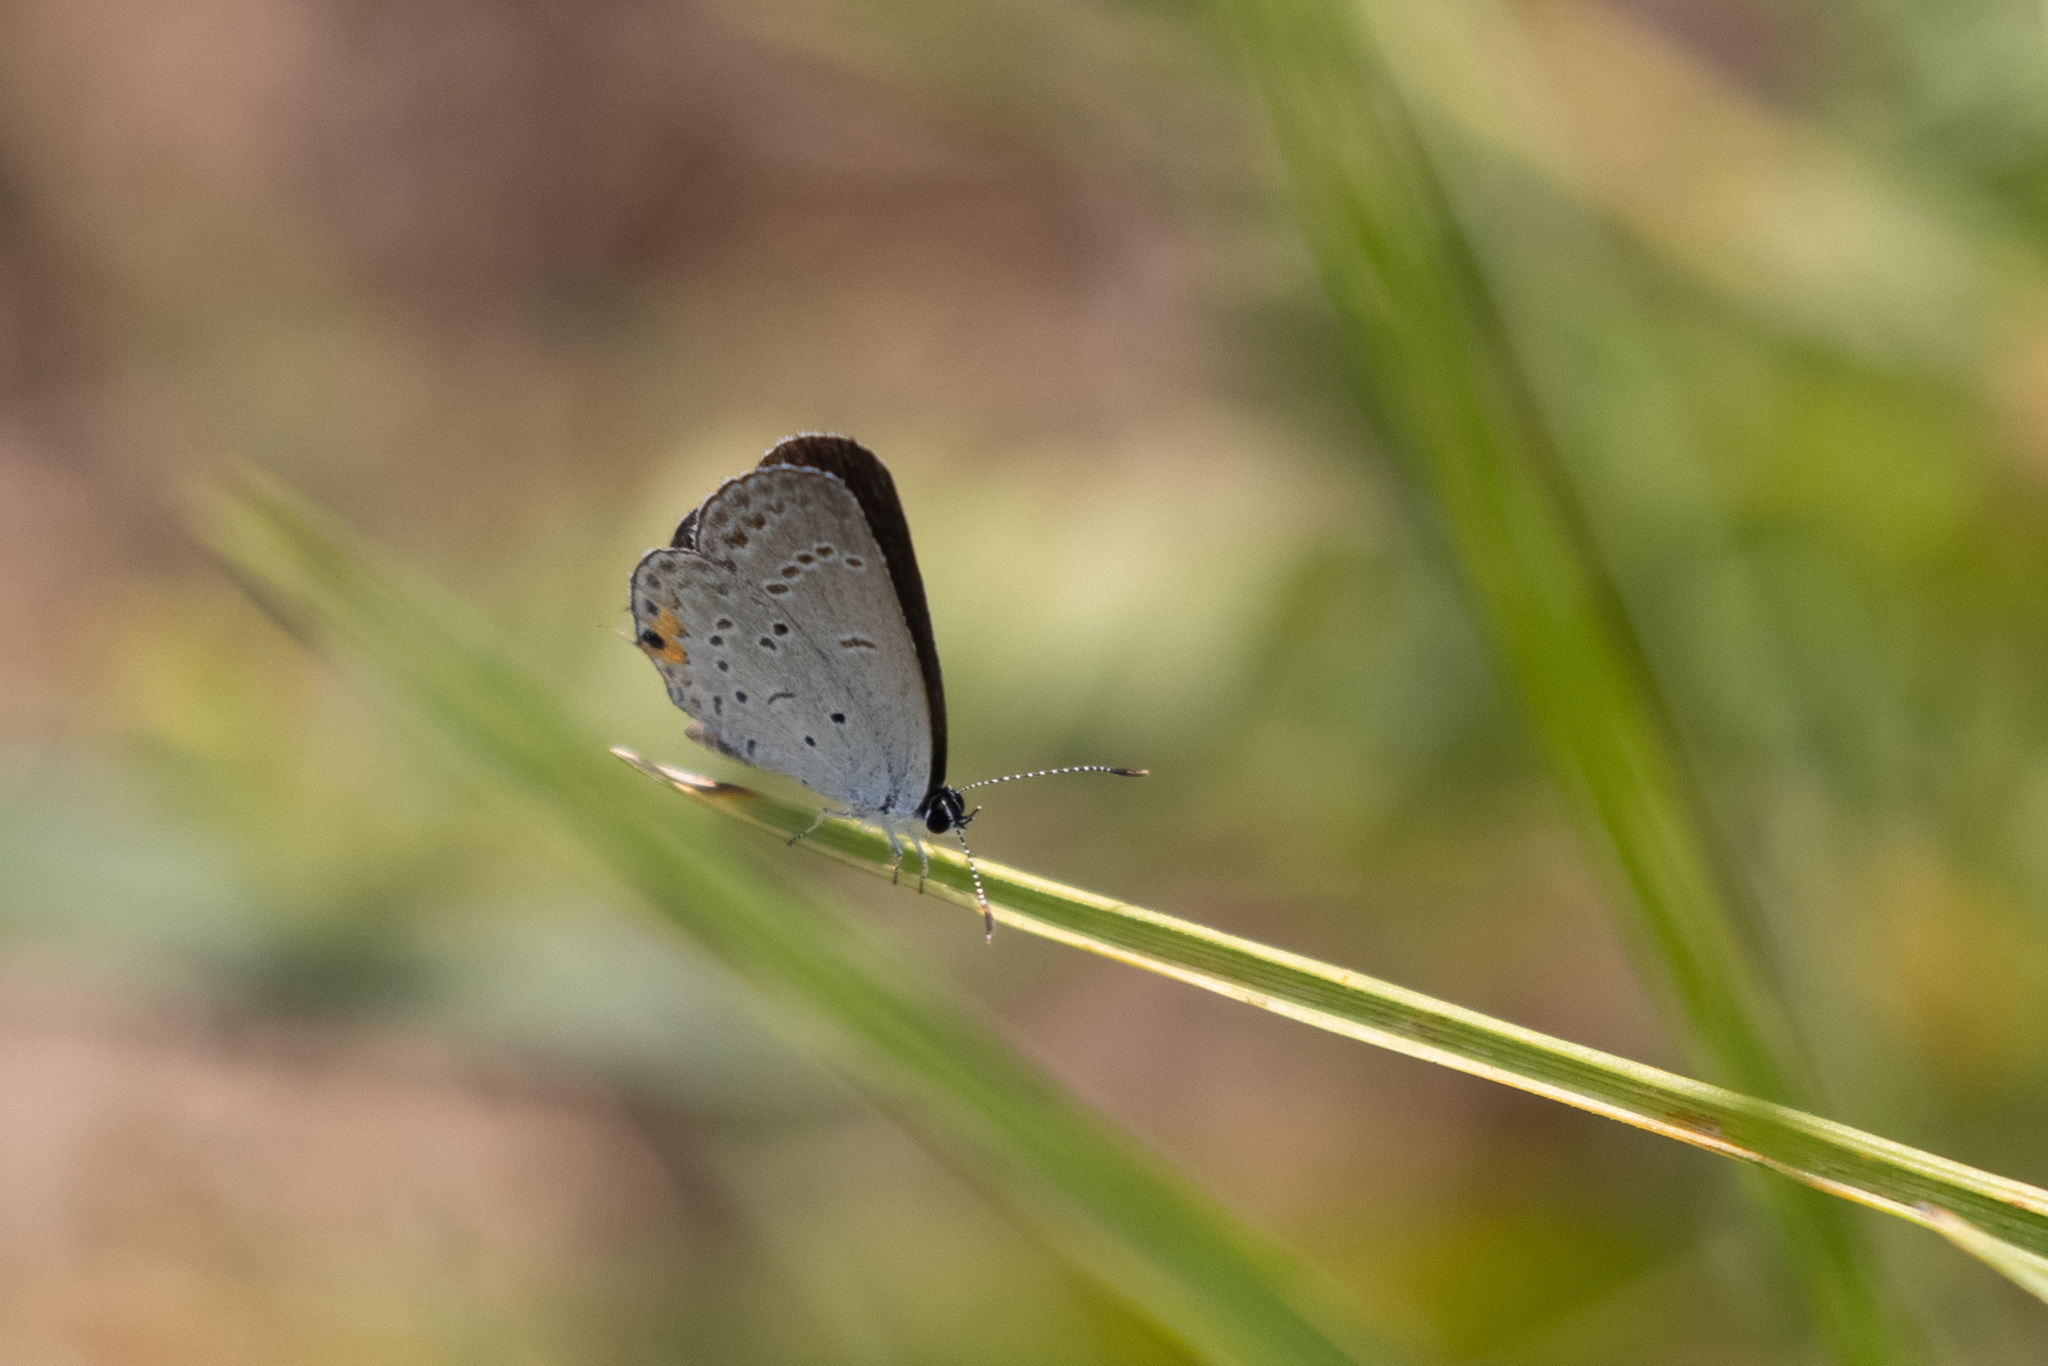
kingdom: Animalia
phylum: Arthropoda
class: Insecta
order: Lepidoptera
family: Lycaenidae
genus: Elkalyce
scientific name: Elkalyce comyntas
